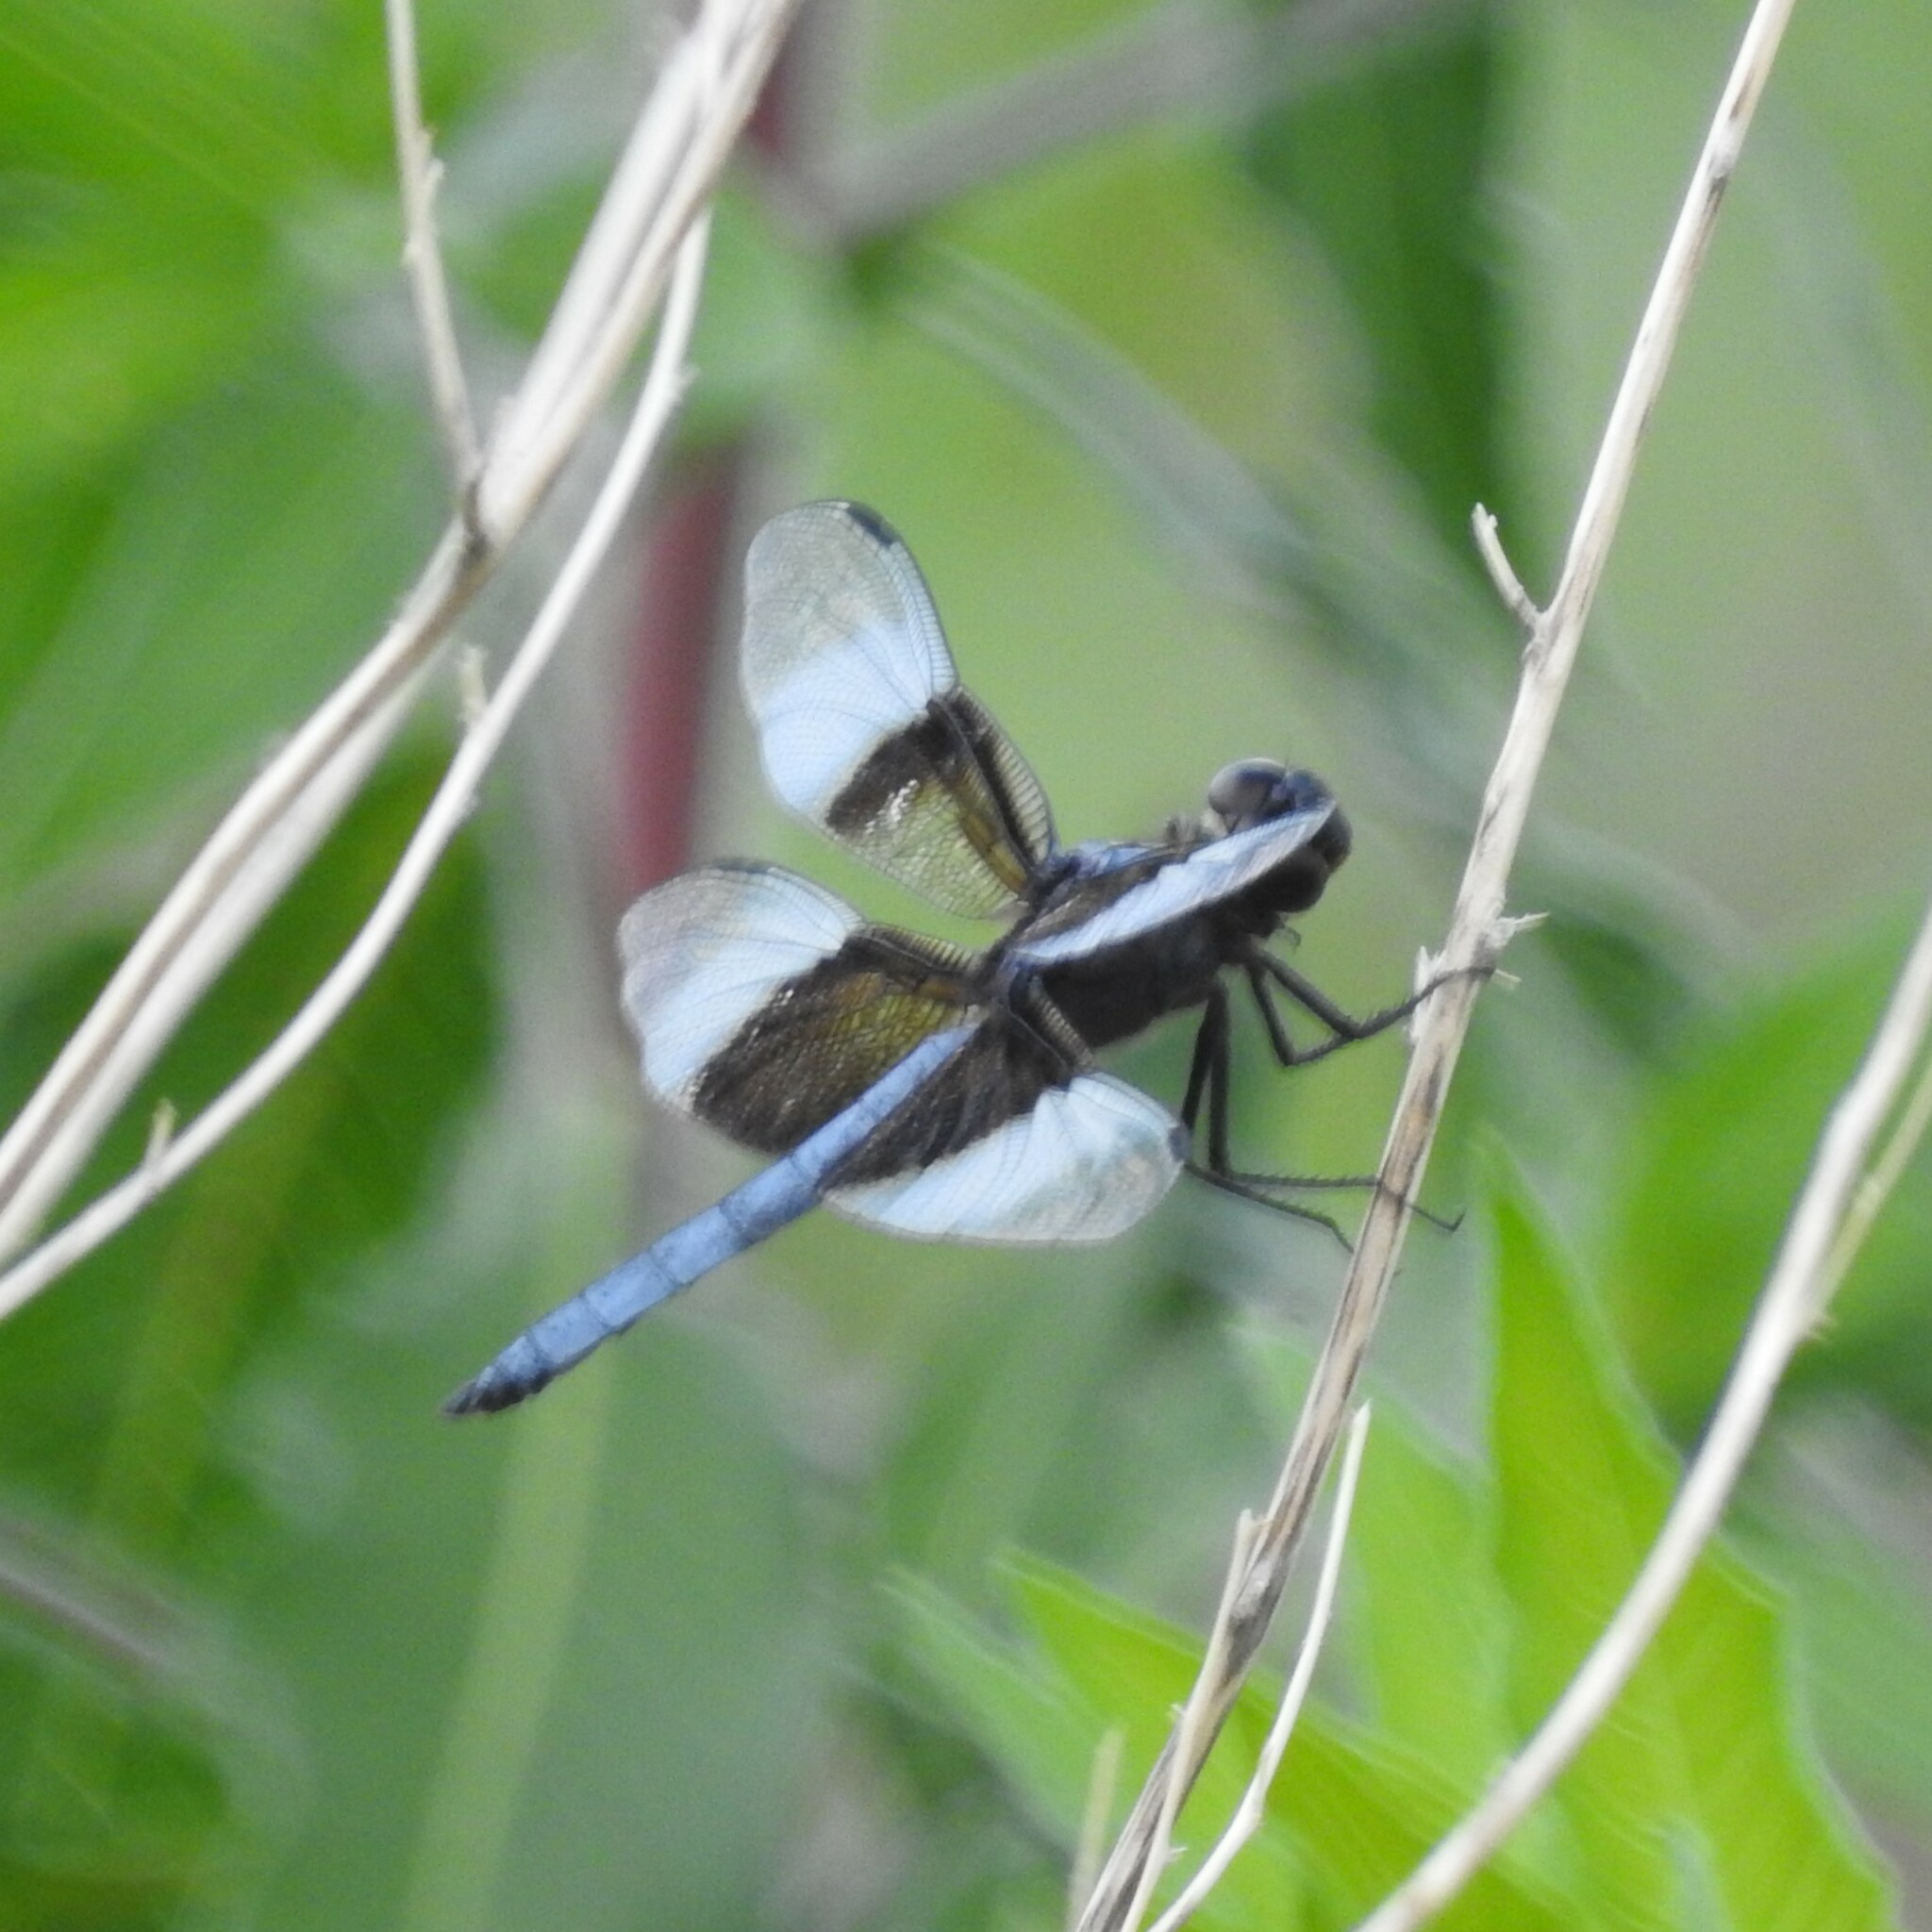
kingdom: Animalia
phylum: Arthropoda
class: Insecta
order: Odonata
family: Libellulidae
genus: Libellula
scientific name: Libellula luctuosa
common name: Widow skimmer
